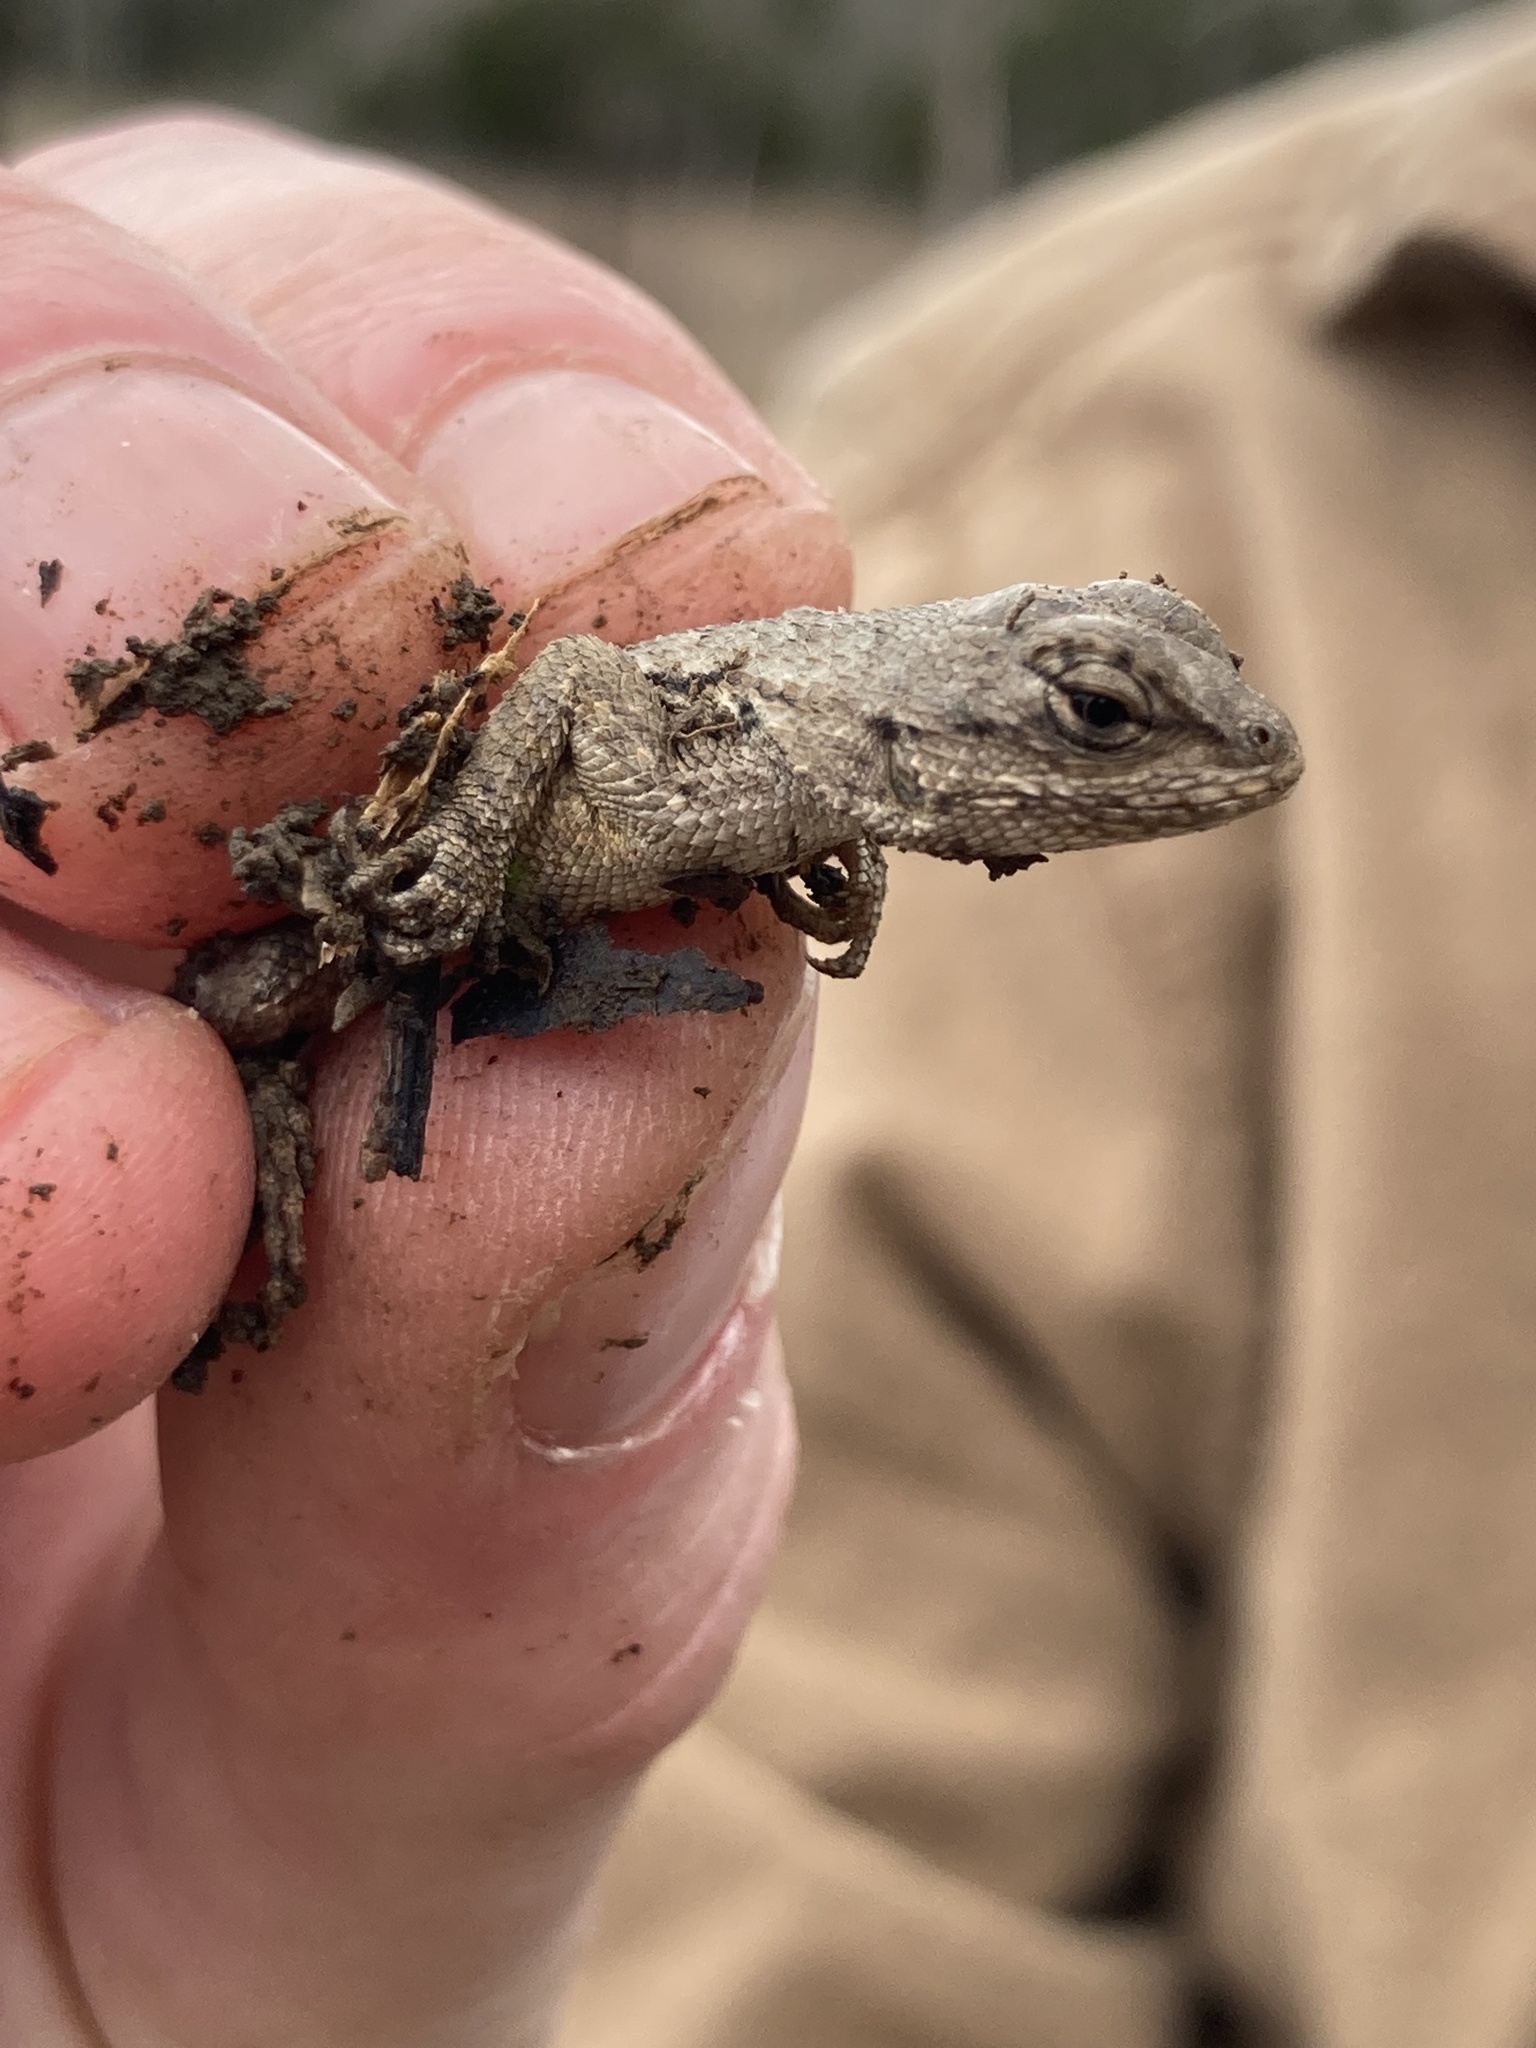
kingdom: Animalia
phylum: Chordata
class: Squamata
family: Phrynosomatidae
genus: Sceloporus
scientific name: Sceloporus undulatus
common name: Eastern fence lizard
